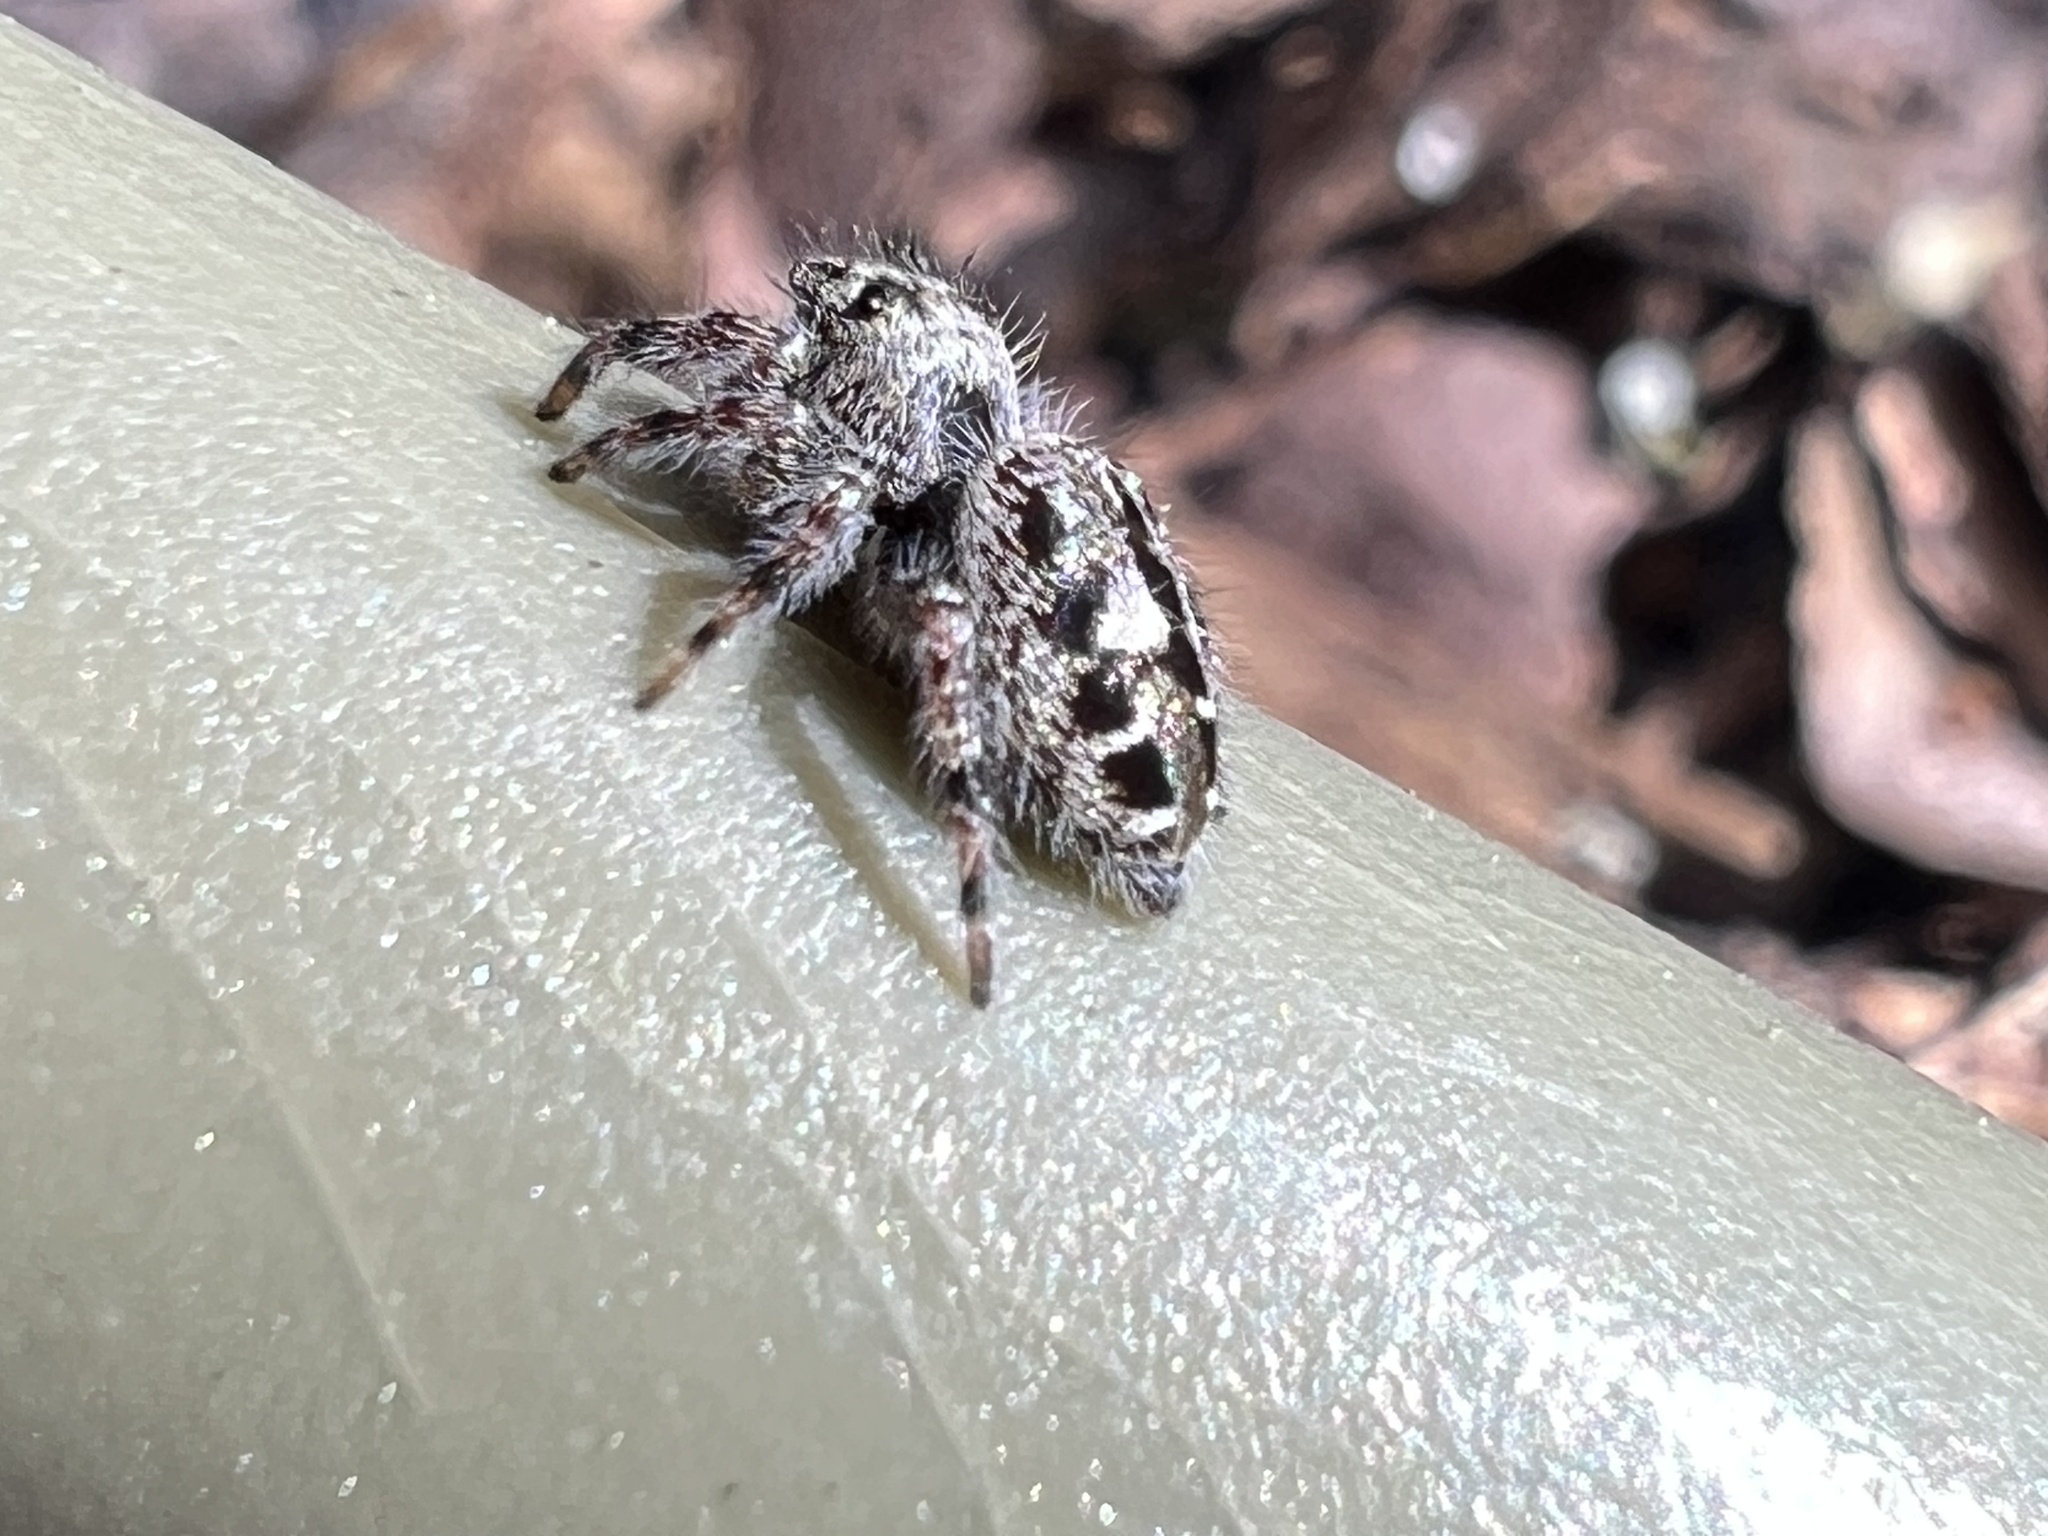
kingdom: Animalia
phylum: Arthropoda
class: Arachnida
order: Araneae
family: Salticidae
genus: Phidippus
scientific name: Phidippus putnami
